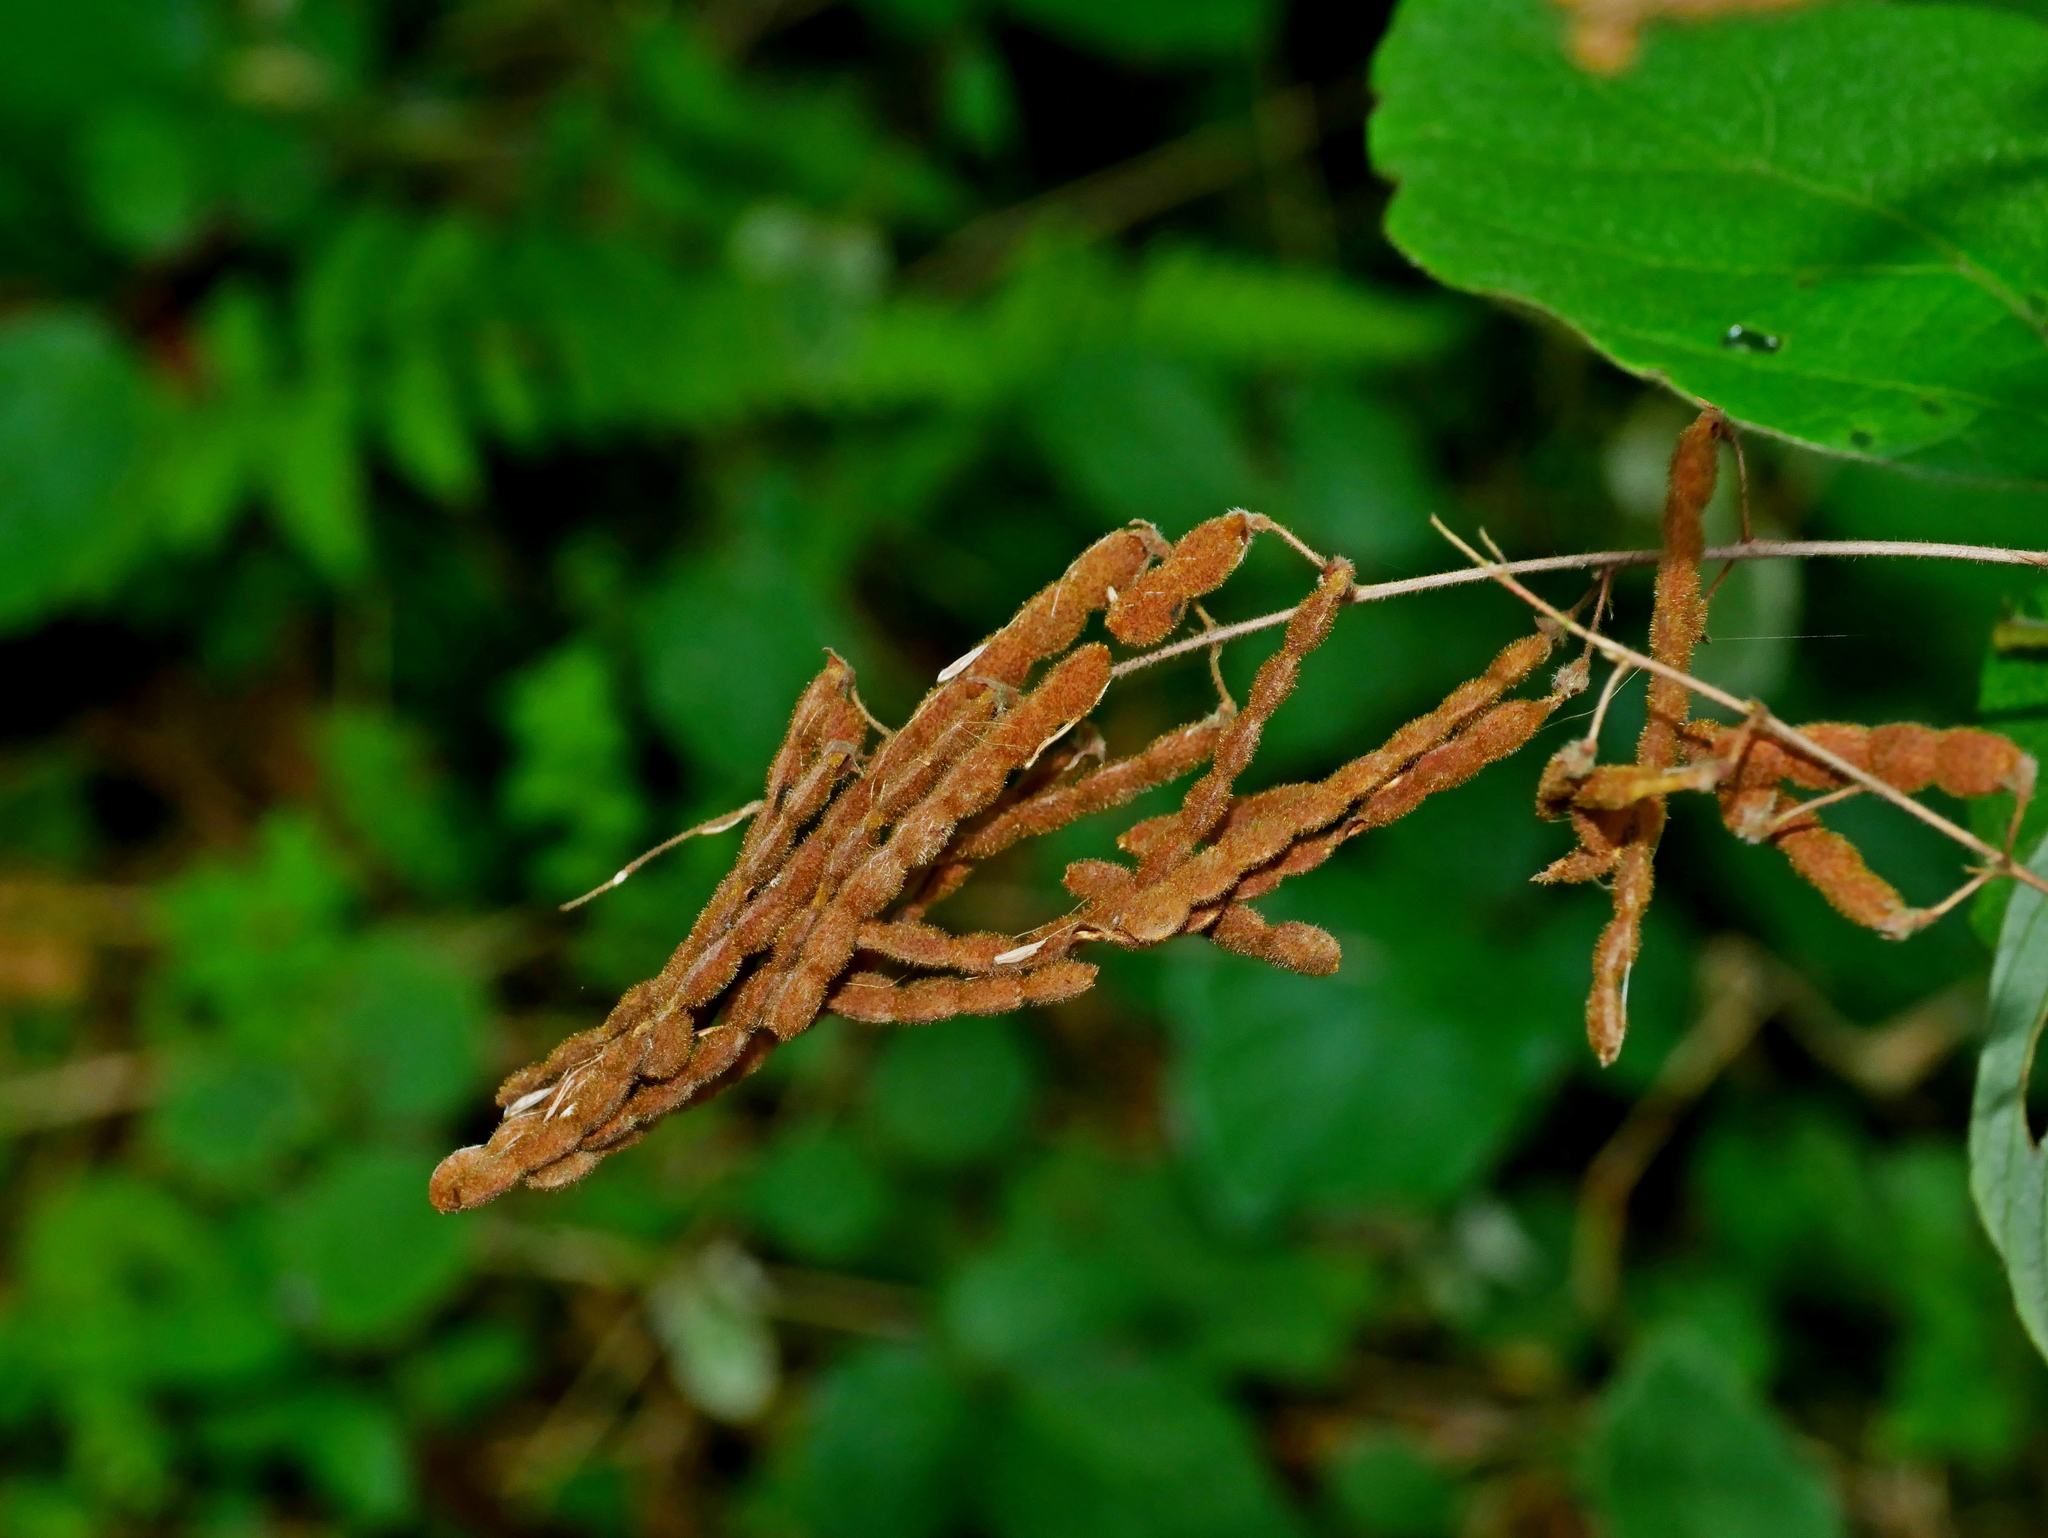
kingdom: Plantae
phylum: Tracheophyta
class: Magnoliopsida
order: Fabales
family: Fabaceae
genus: Puhuaea
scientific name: Puhuaea sequax
